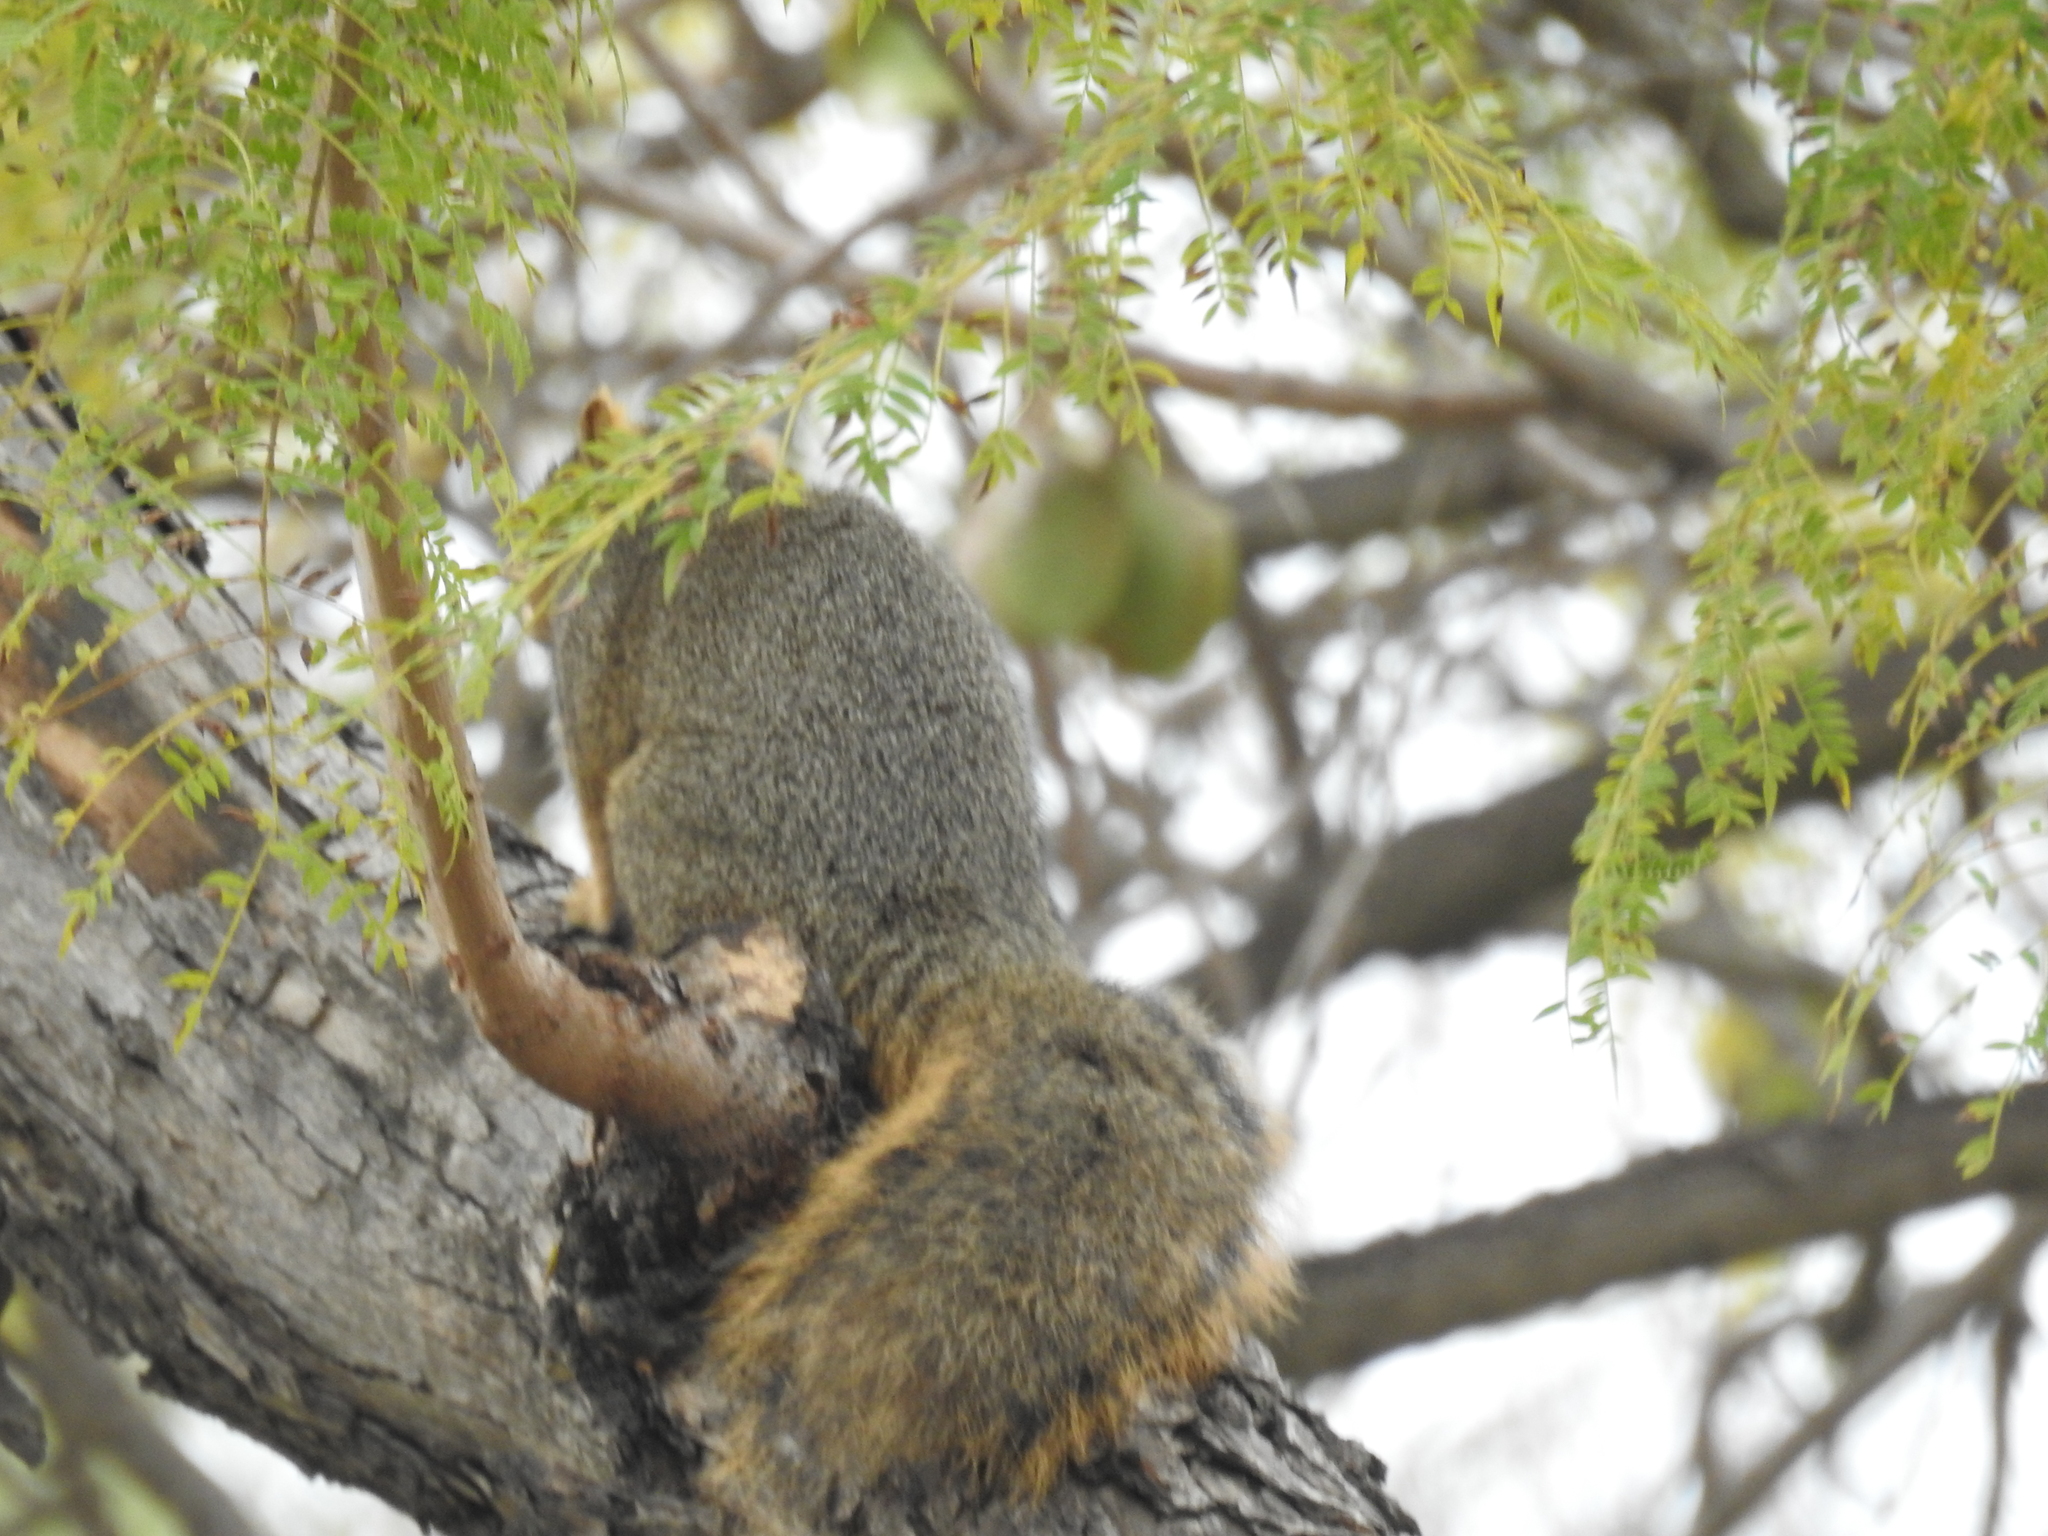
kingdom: Animalia
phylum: Chordata
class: Mammalia
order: Rodentia
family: Sciuridae
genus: Sciurus
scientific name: Sciurus niger
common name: Fox squirrel
